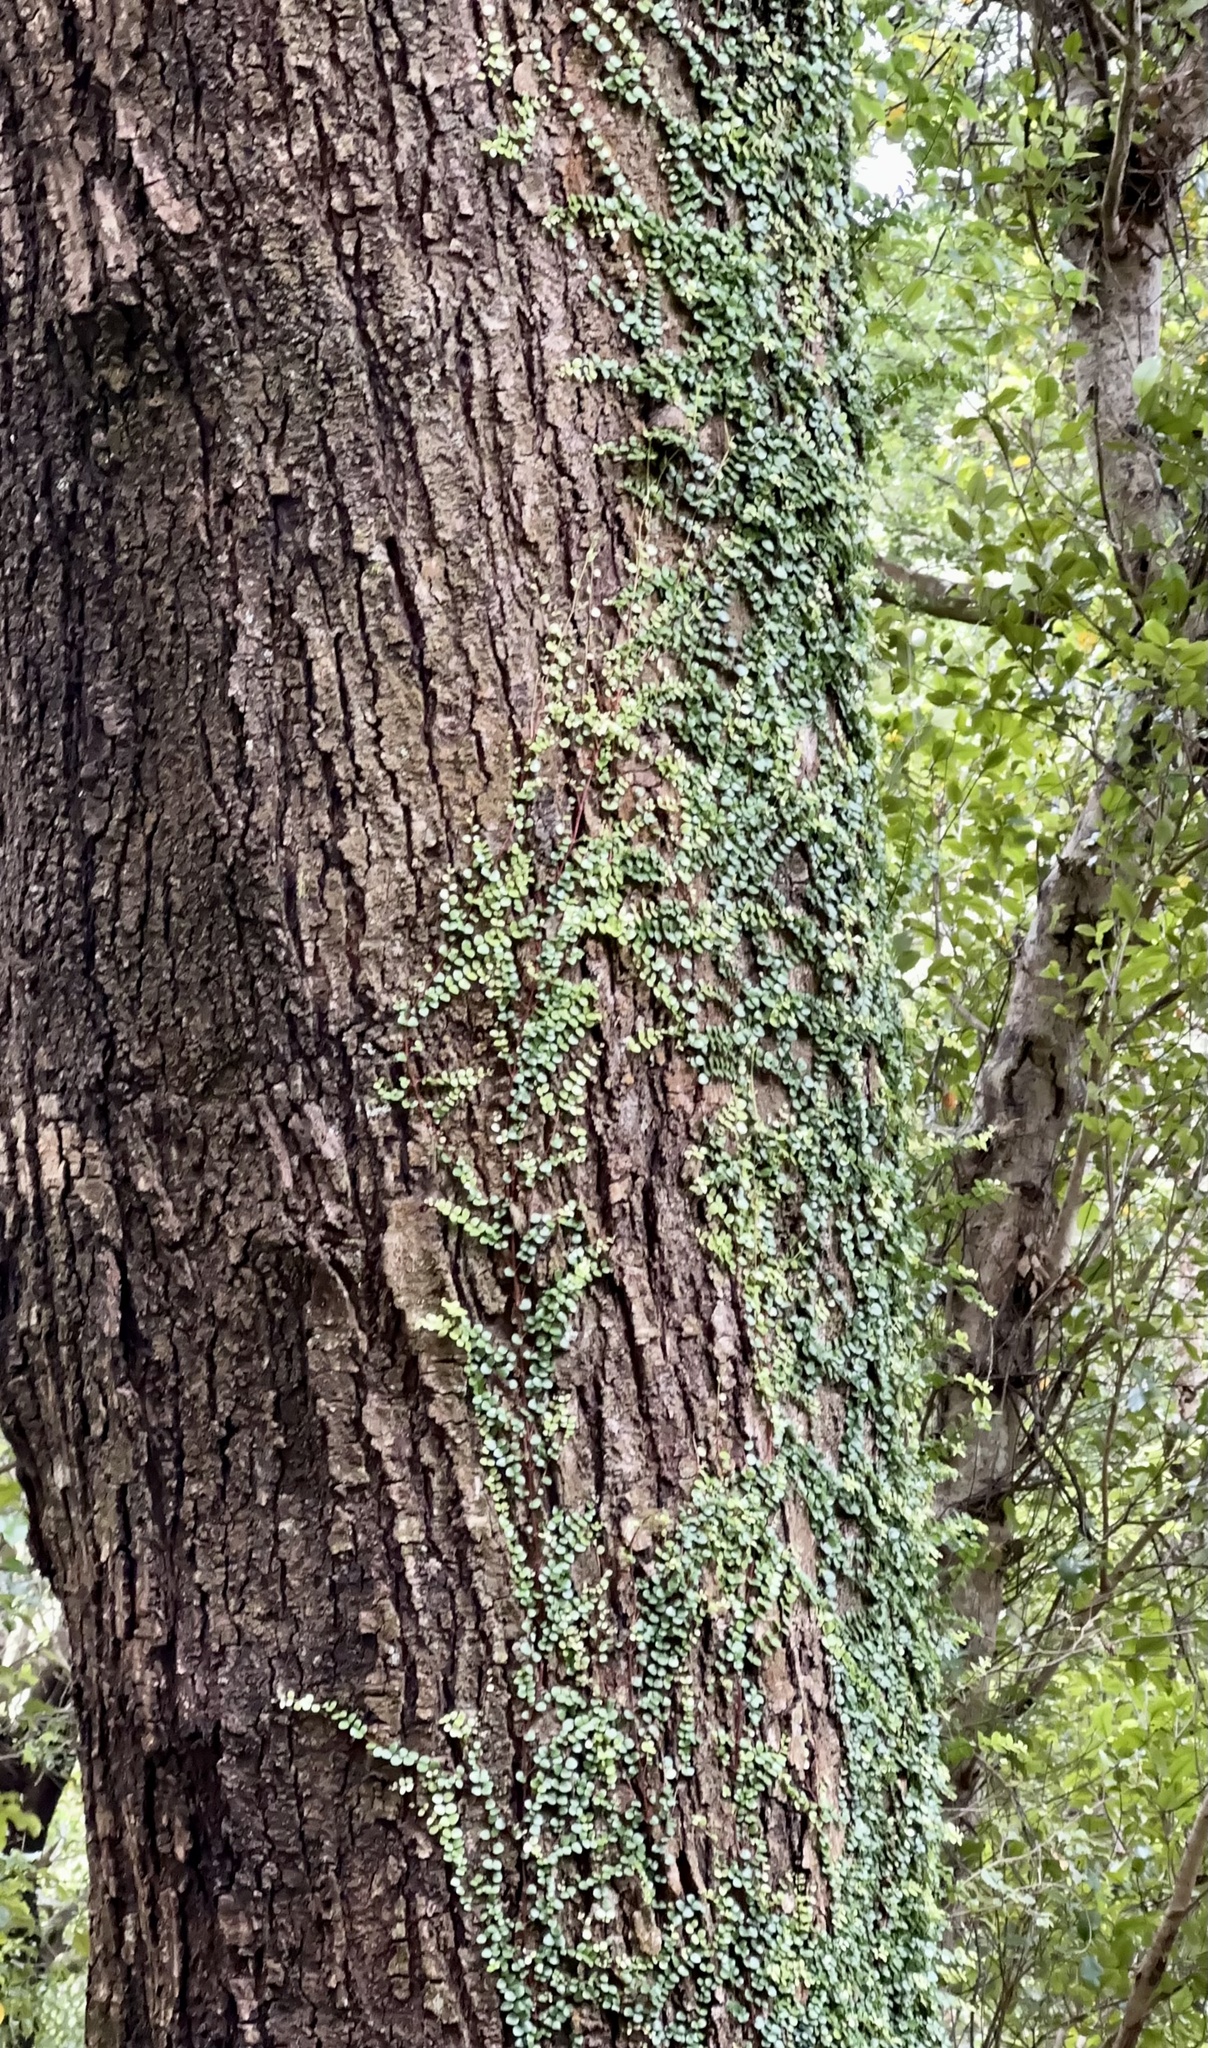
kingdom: Plantae
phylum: Tracheophyta
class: Magnoliopsida
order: Myrtales
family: Myrtaceae
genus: Metrosideros
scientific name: Metrosideros perforata
